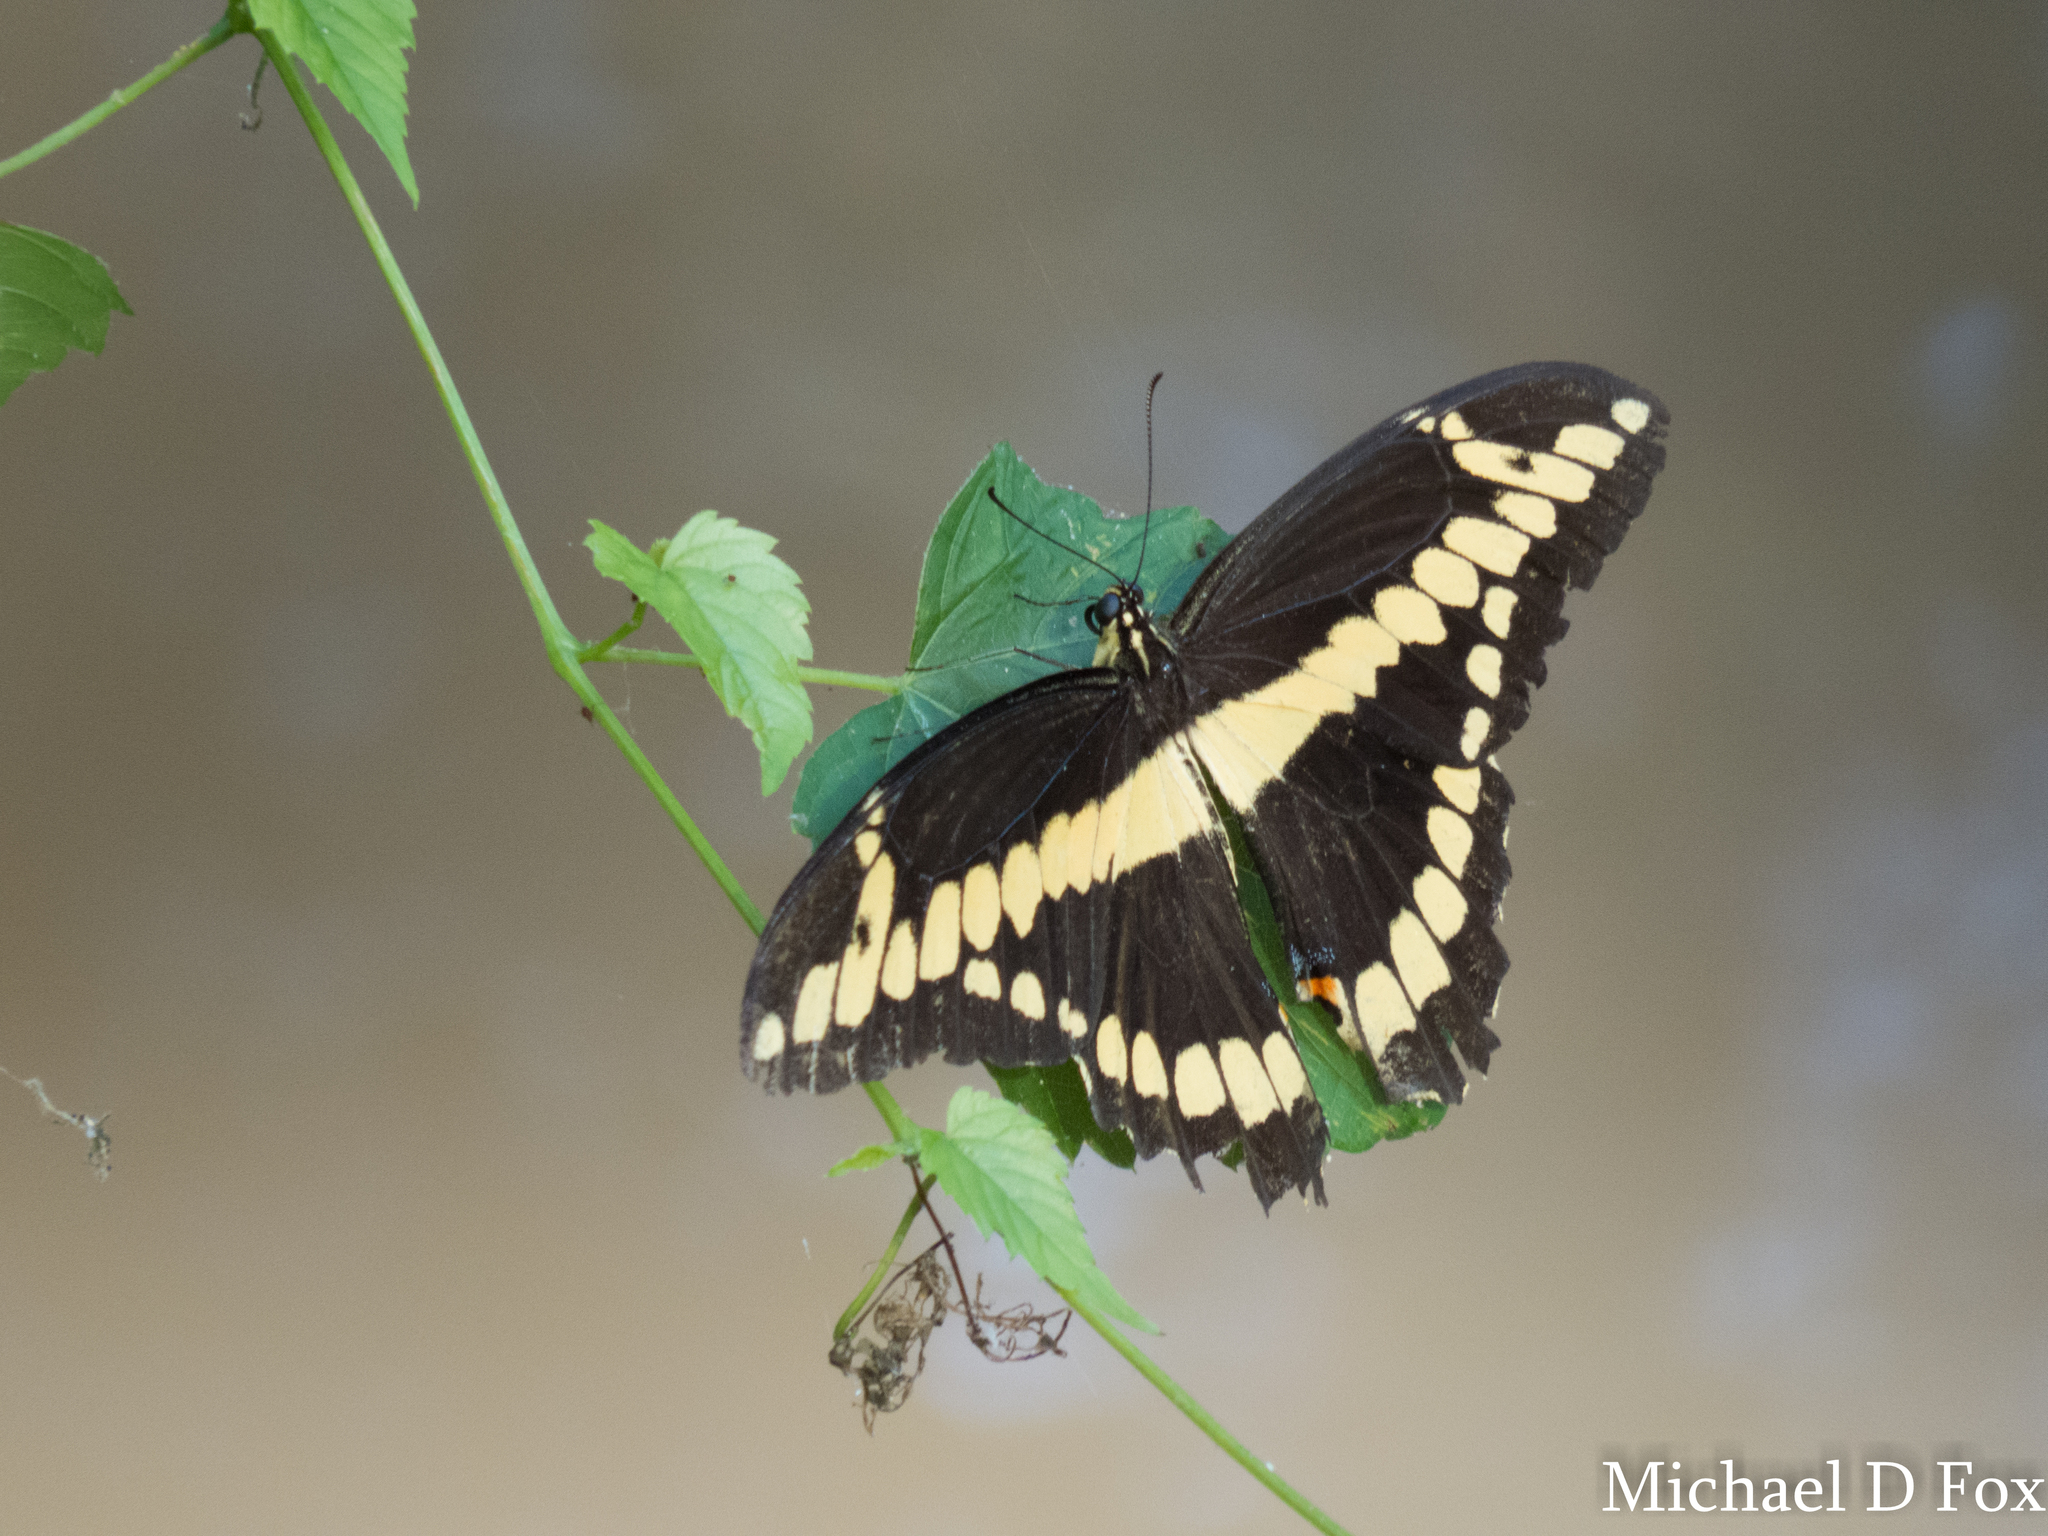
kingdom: Animalia
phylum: Arthropoda
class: Insecta
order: Lepidoptera
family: Papilionidae
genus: Papilio
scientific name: Papilio cresphontes
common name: Giant swallowtail
